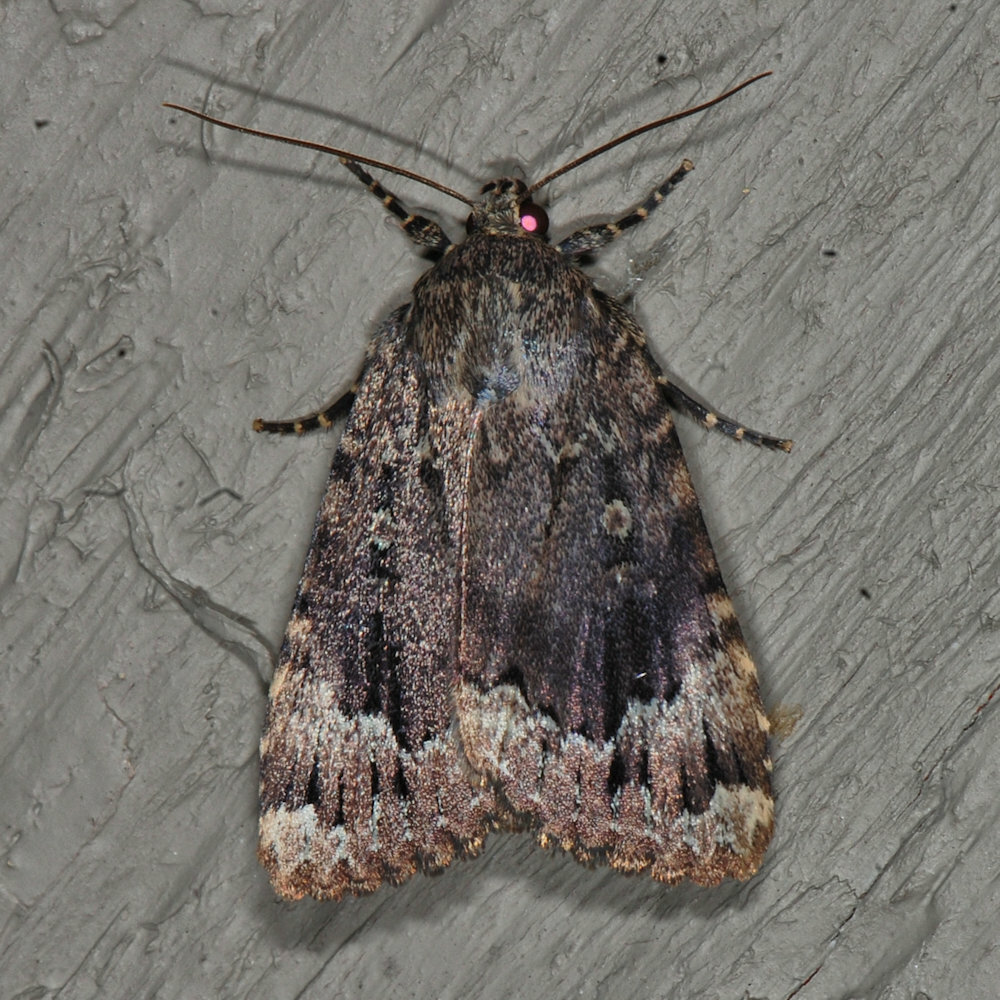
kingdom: Animalia
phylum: Arthropoda
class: Insecta
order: Lepidoptera
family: Noctuidae
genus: Amphipyra
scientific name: Amphipyra pyramidoides
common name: American copper underwing
